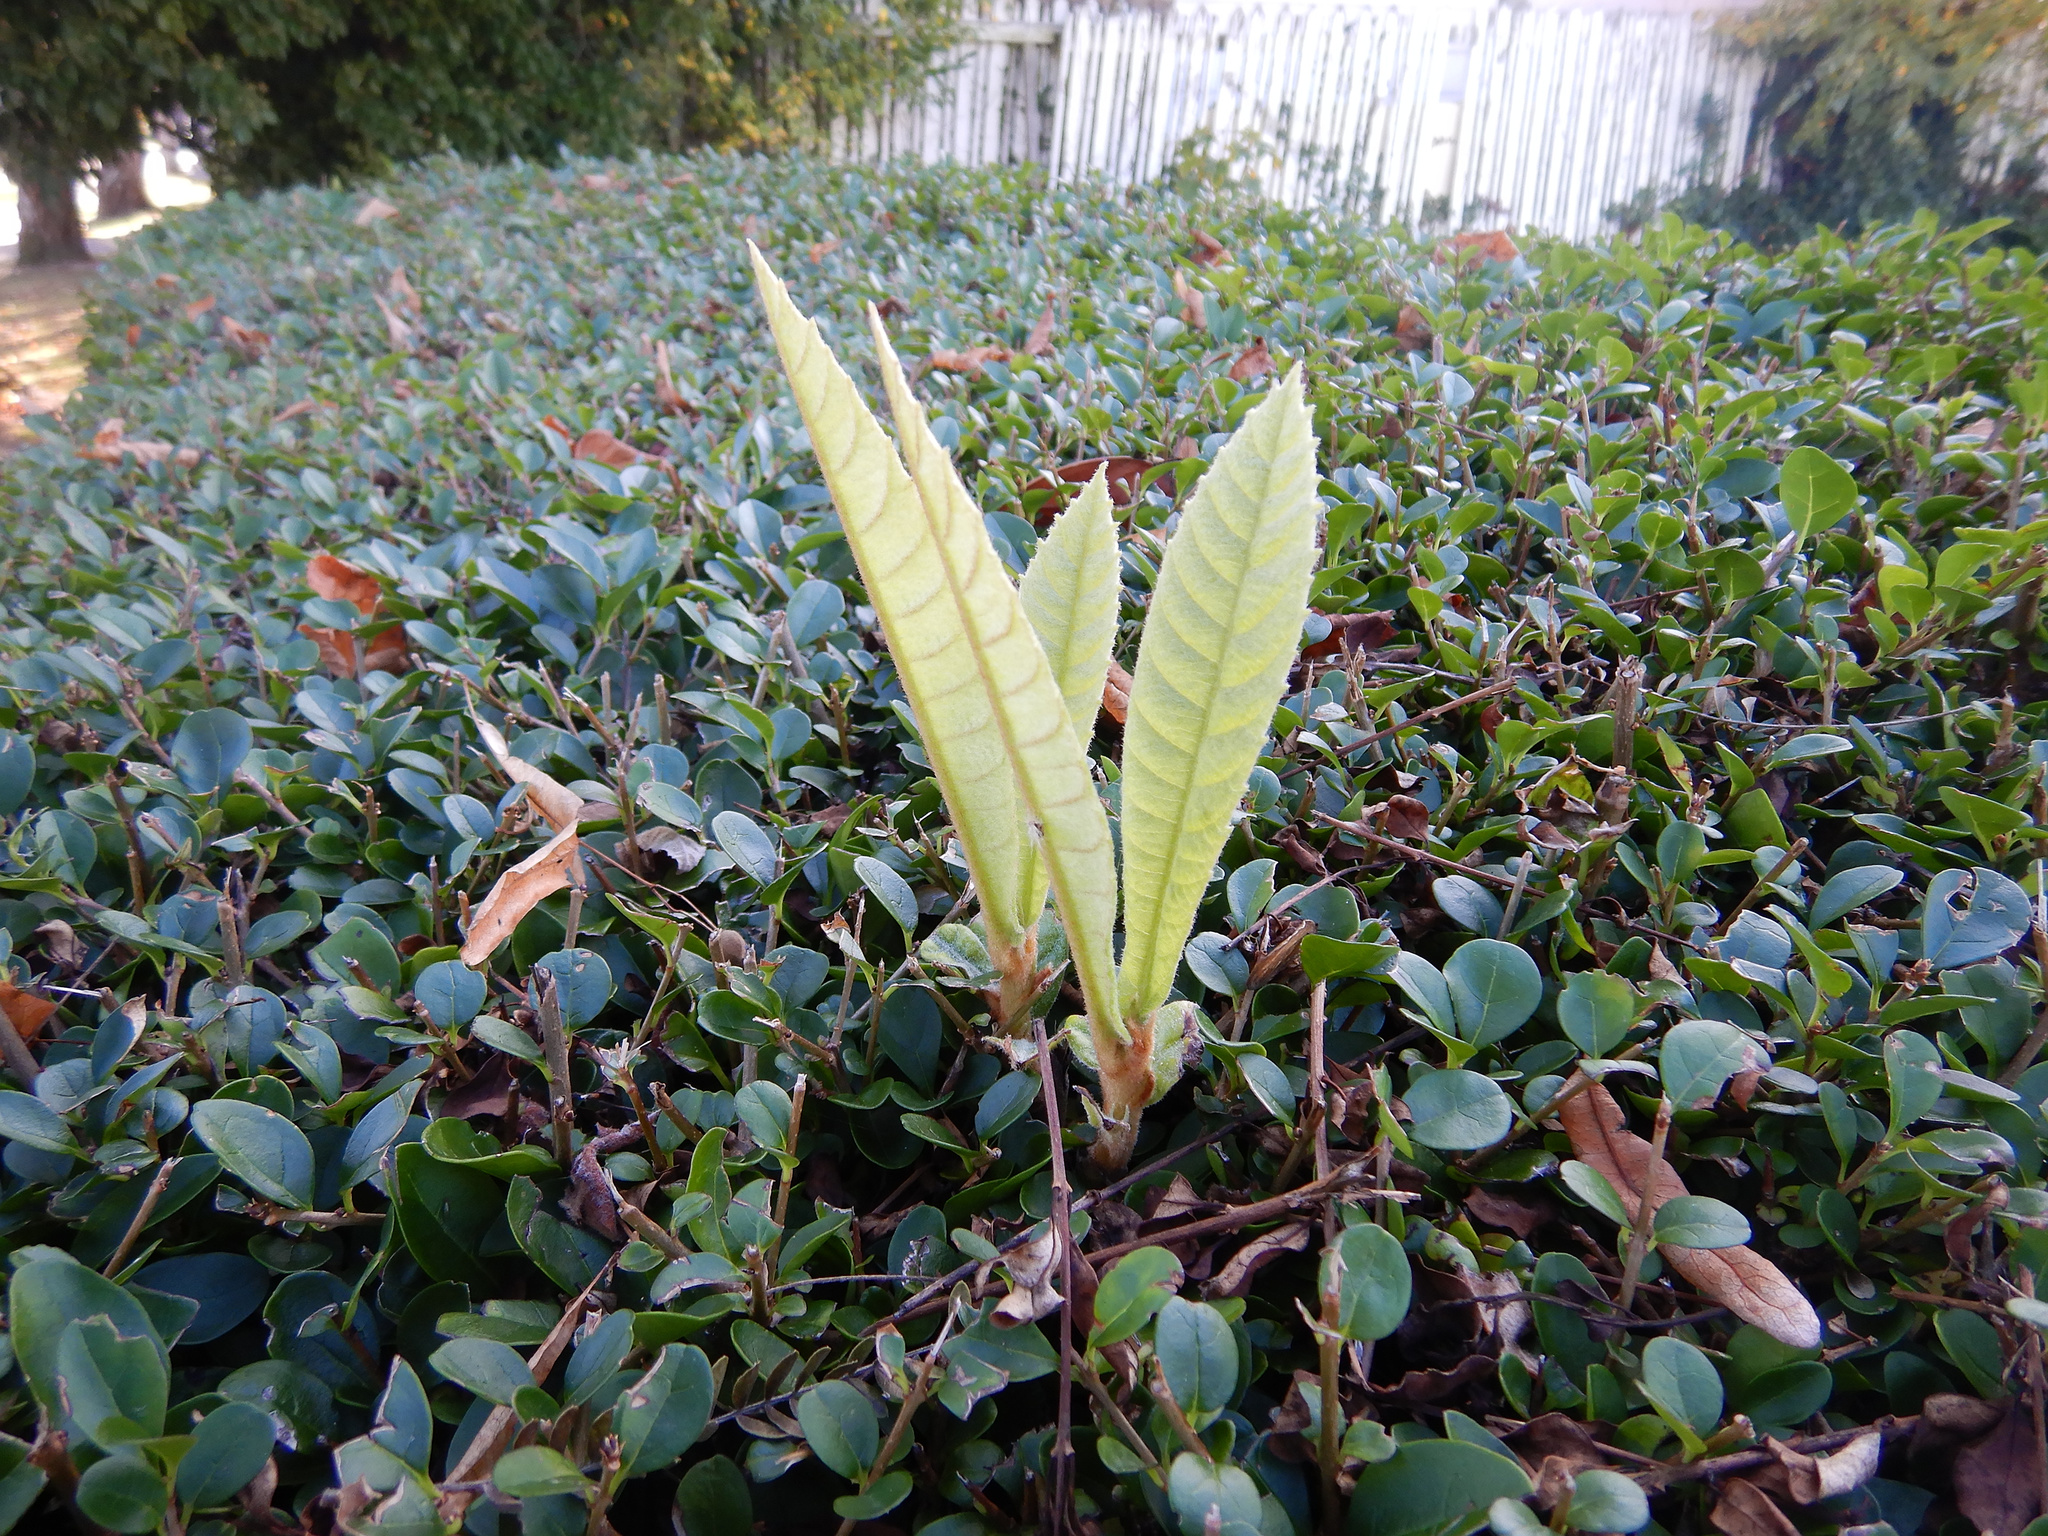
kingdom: Plantae
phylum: Tracheophyta
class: Magnoliopsida
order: Rosales
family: Rosaceae
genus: Rhaphiolepis
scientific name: Rhaphiolepis bibas
